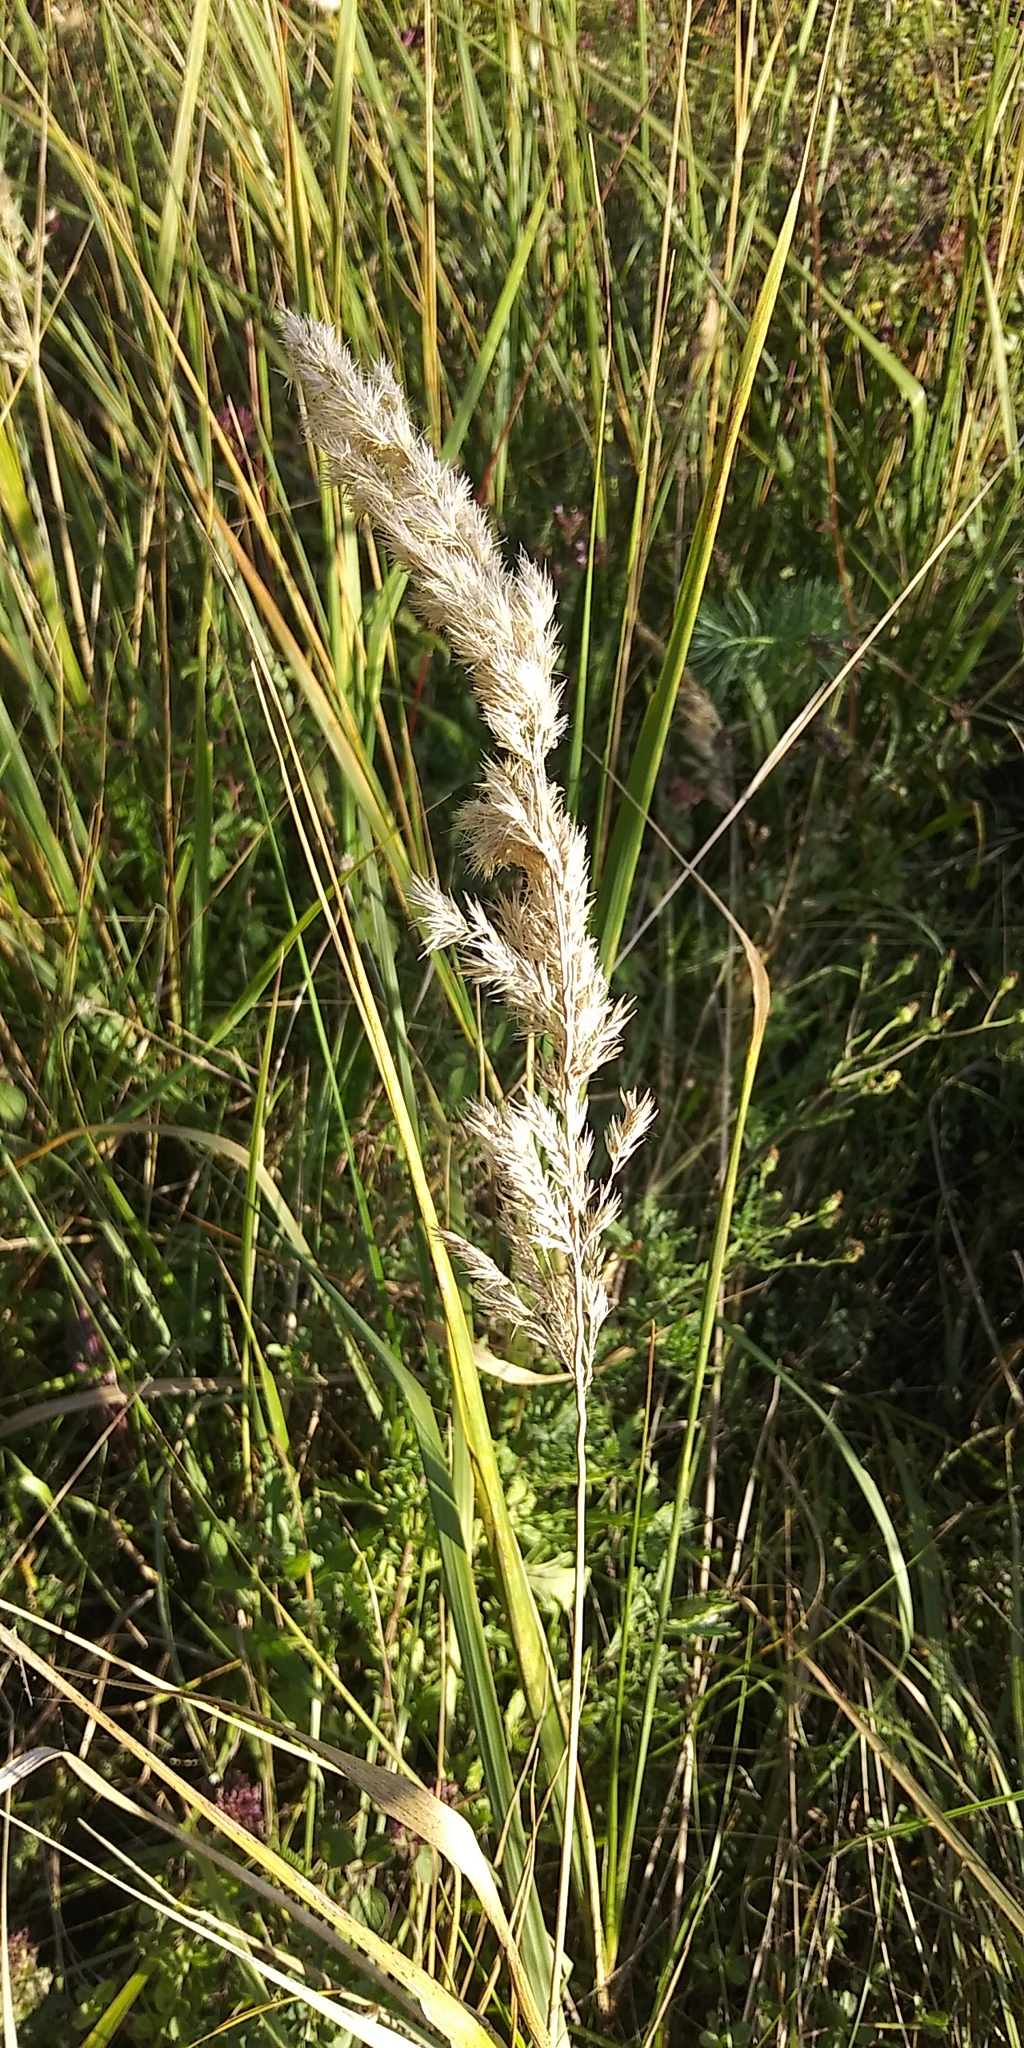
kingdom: Plantae
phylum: Tracheophyta
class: Liliopsida
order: Poales
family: Poaceae
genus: Calamagrostis
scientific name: Calamagrostis epigejos
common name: Wood small-reed
